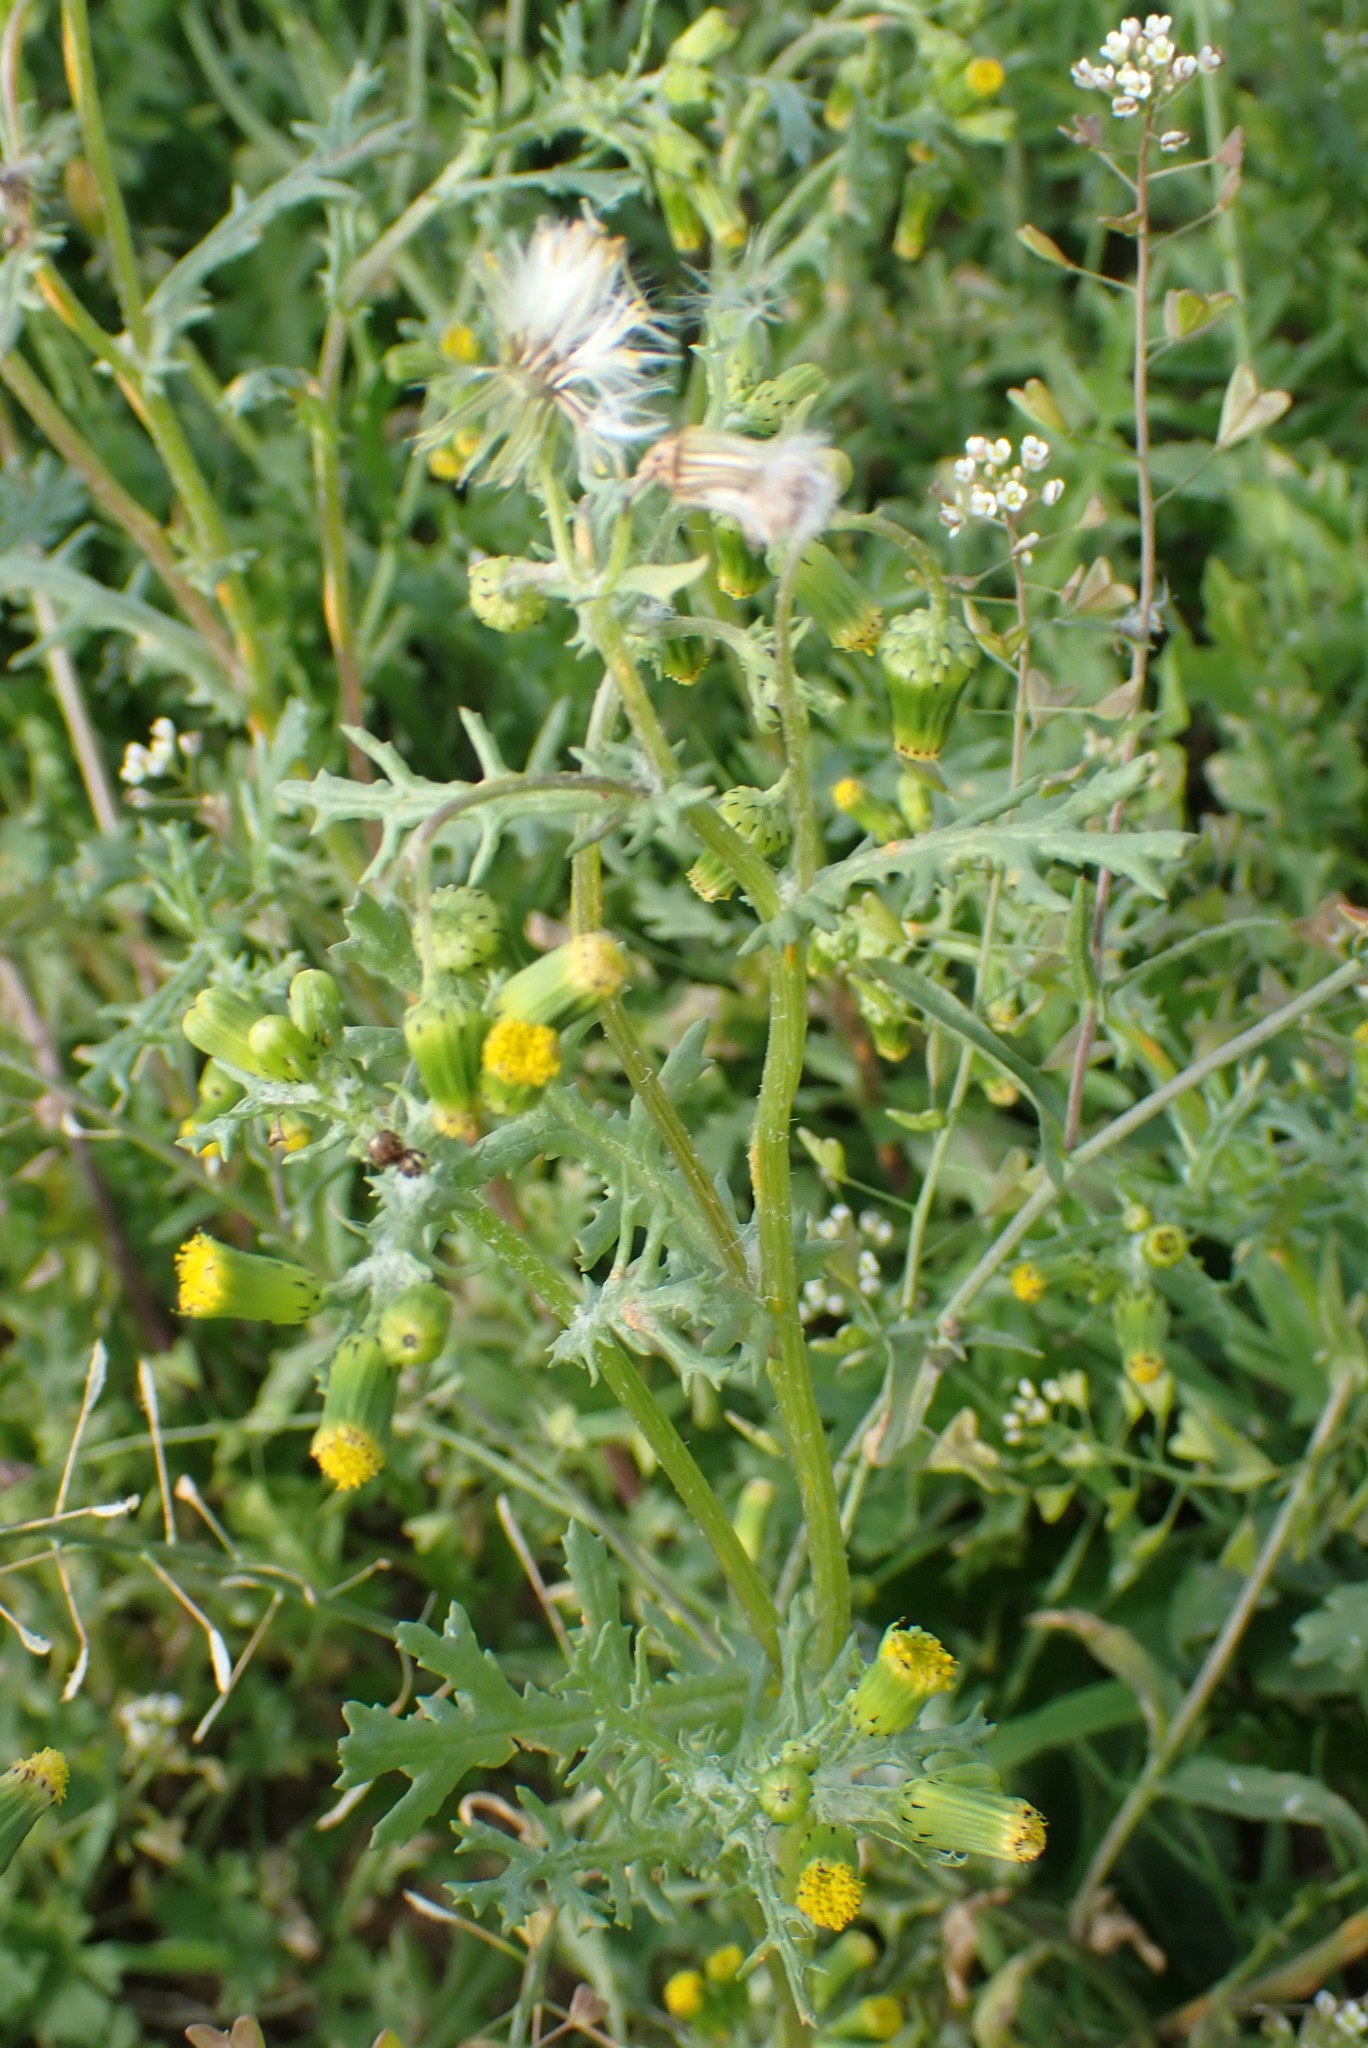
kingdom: Plantae
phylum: Tracheophyta
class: Magnoliopsida
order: Asterales
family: Asteraceae
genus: Senecio
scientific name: Senecio vulgaris
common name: Old-man-in-the-spring
